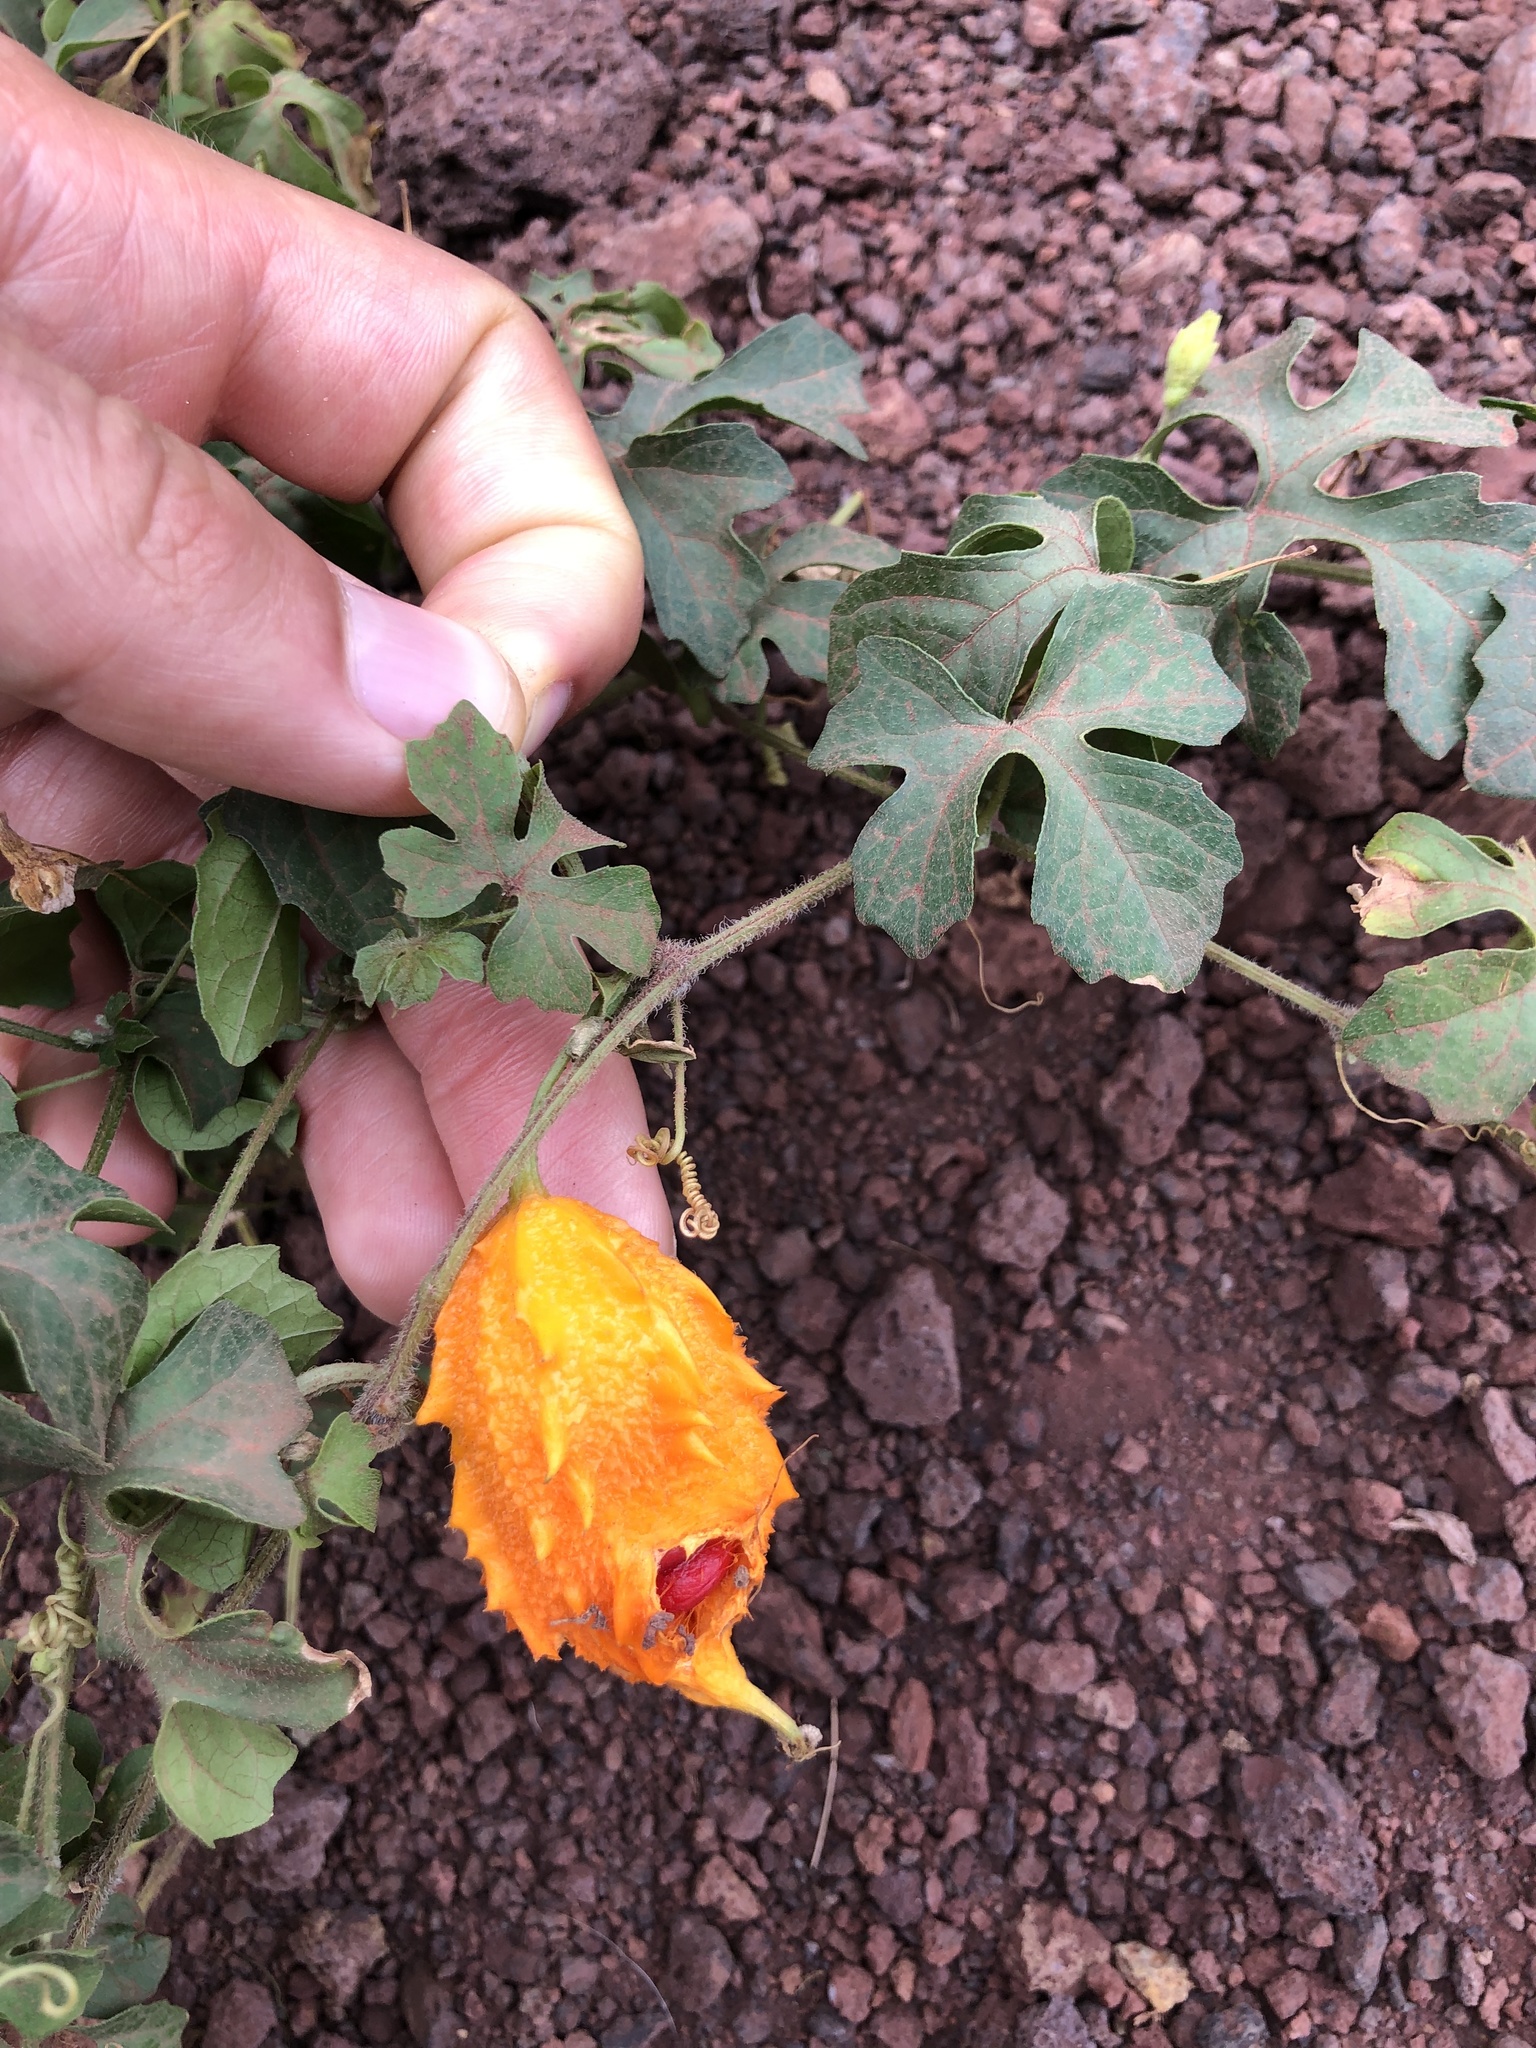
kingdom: Plantae
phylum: Tracheophyta
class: Magnoliopsida
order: Cucurbitales
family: Cucurbitaceae
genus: Momordica
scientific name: Momordica charantia
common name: Balsampear
